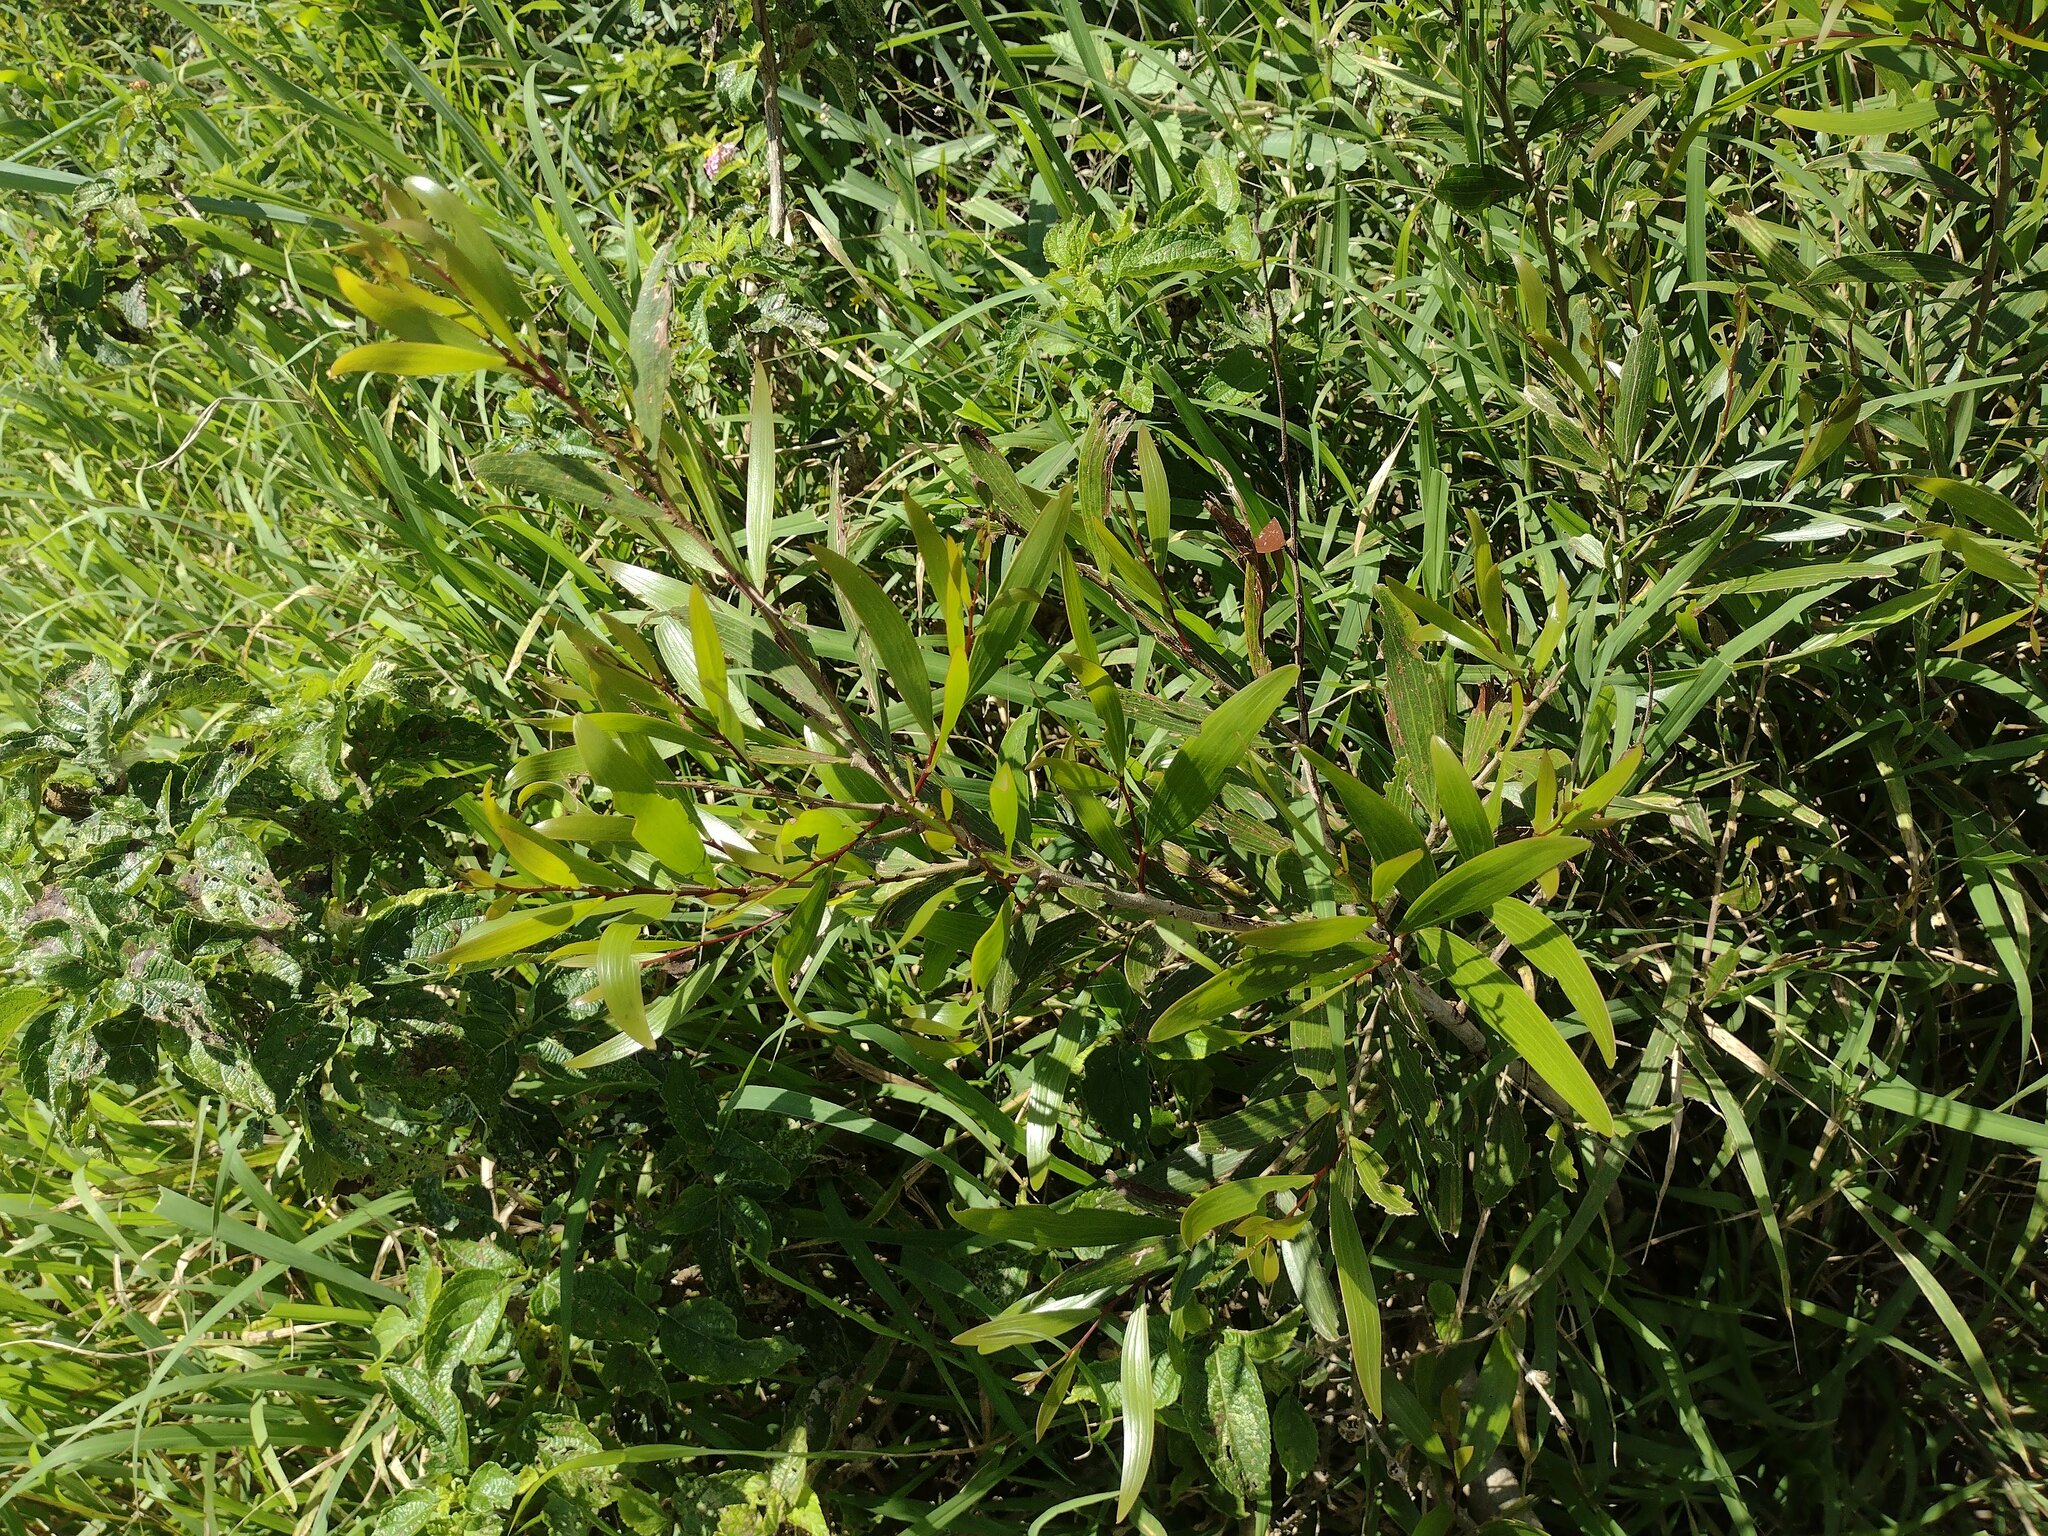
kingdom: Plantae
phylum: Tracheophyta
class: Magnoliopsida
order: Fabales
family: Fabaceae
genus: Acacia
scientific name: Acacia confusa
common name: Formosan koa
